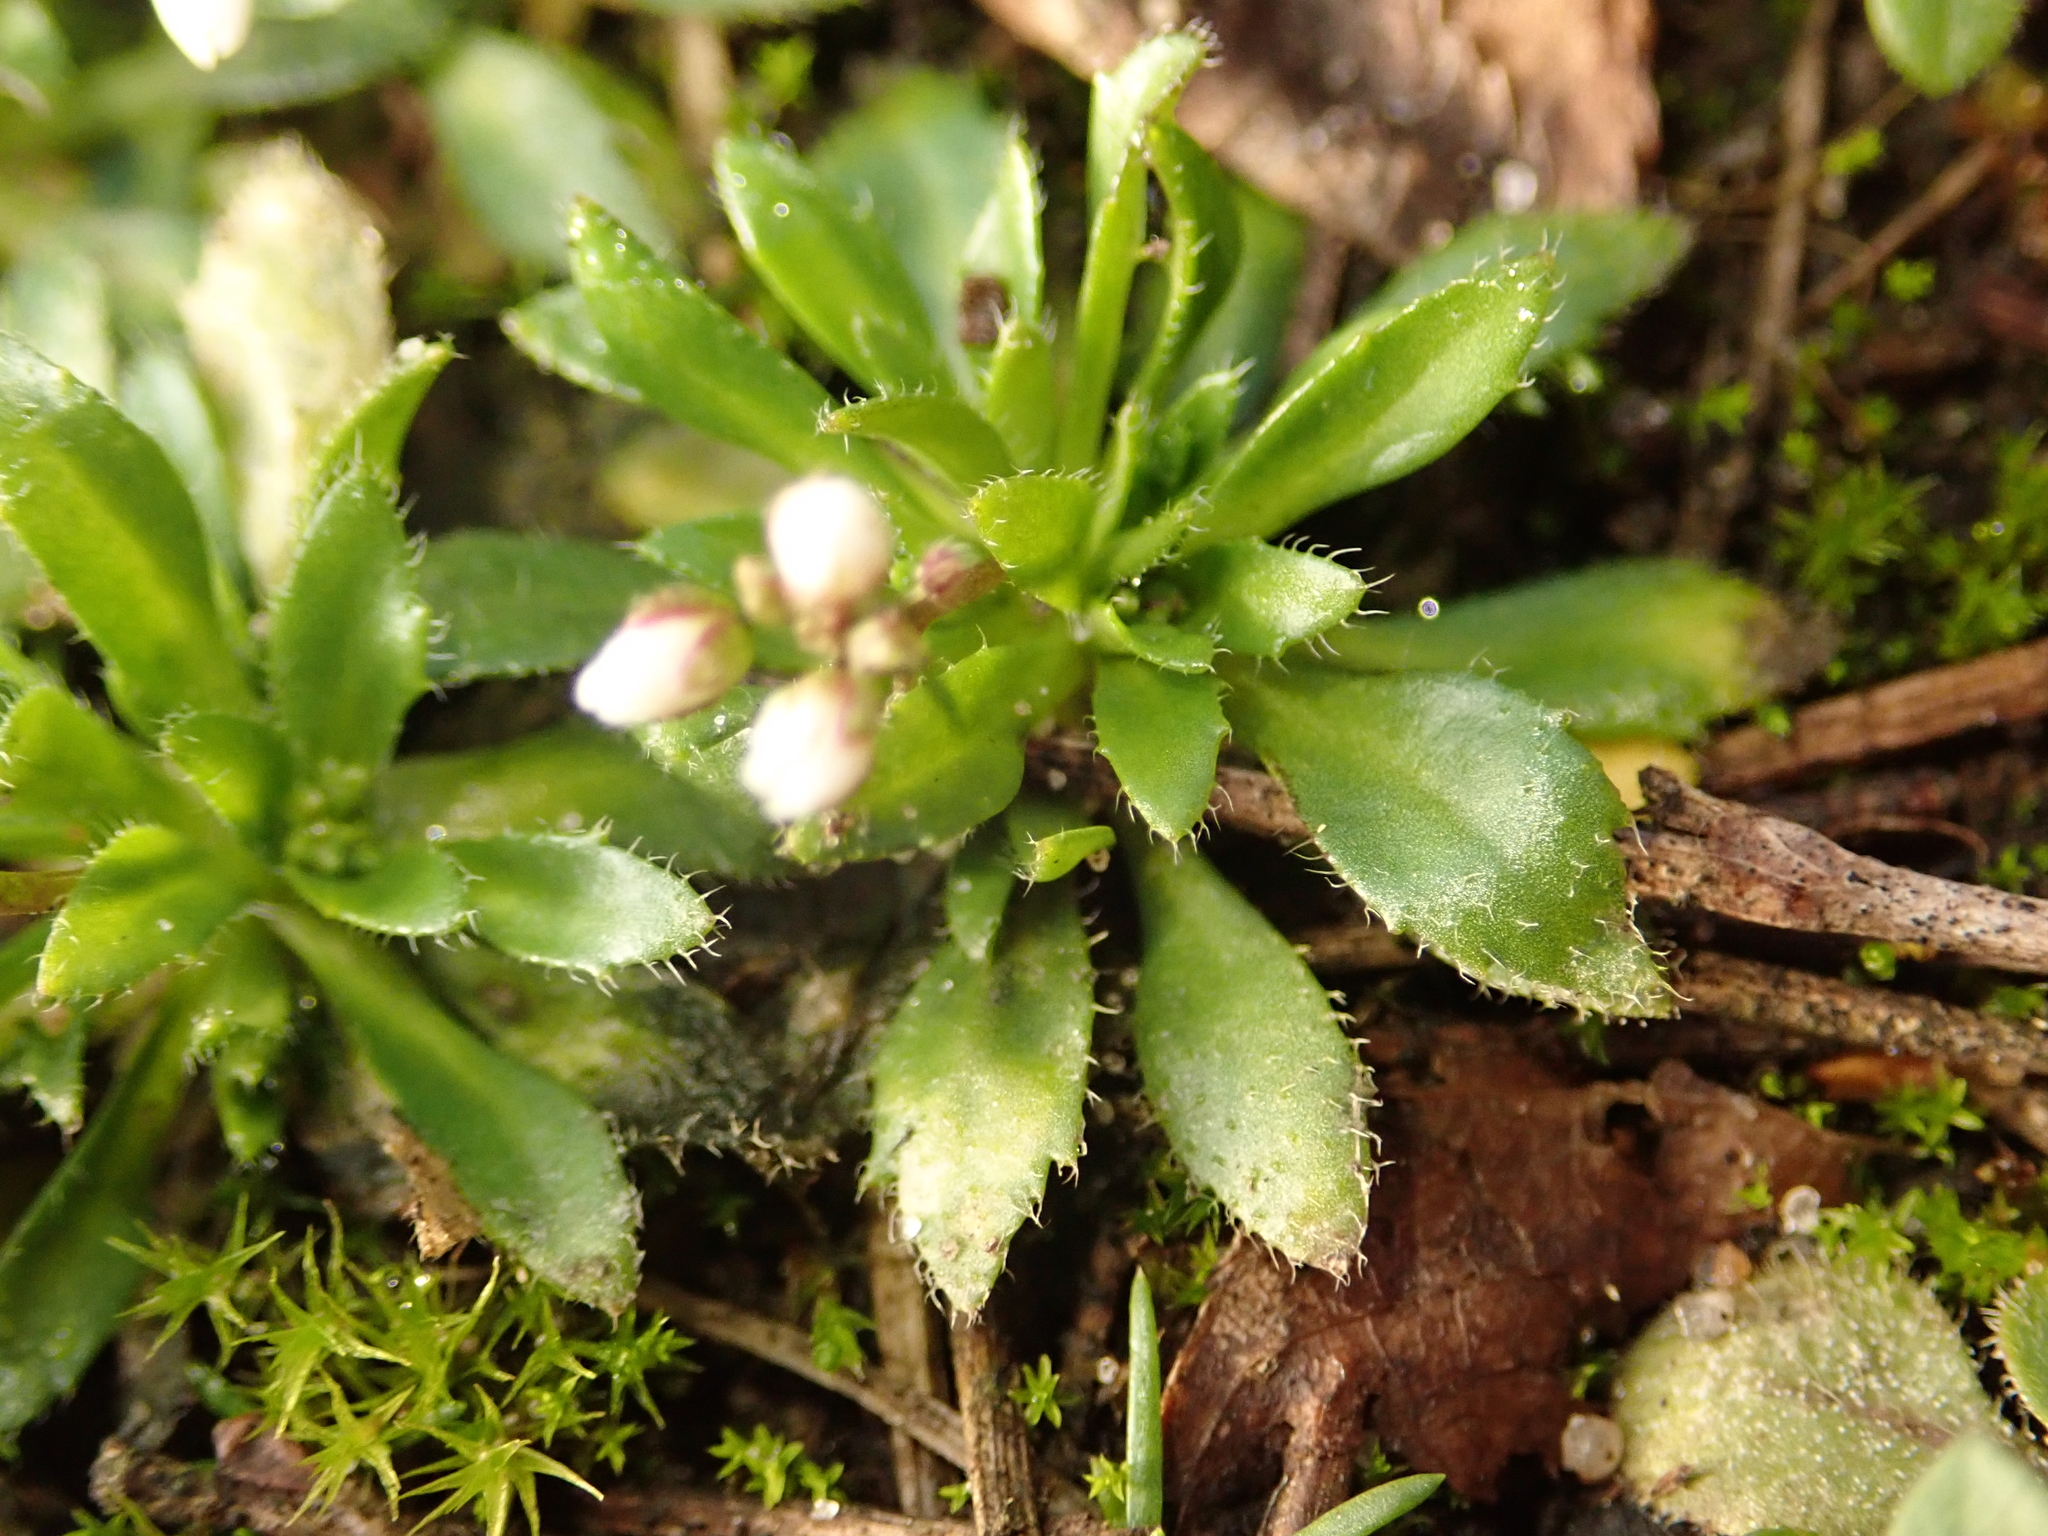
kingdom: Plantae
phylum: Tracheophyta
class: Magnoliopsida
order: Brassicales
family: Brassicaceae
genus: Draba
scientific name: Draba verna
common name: Spring draba
